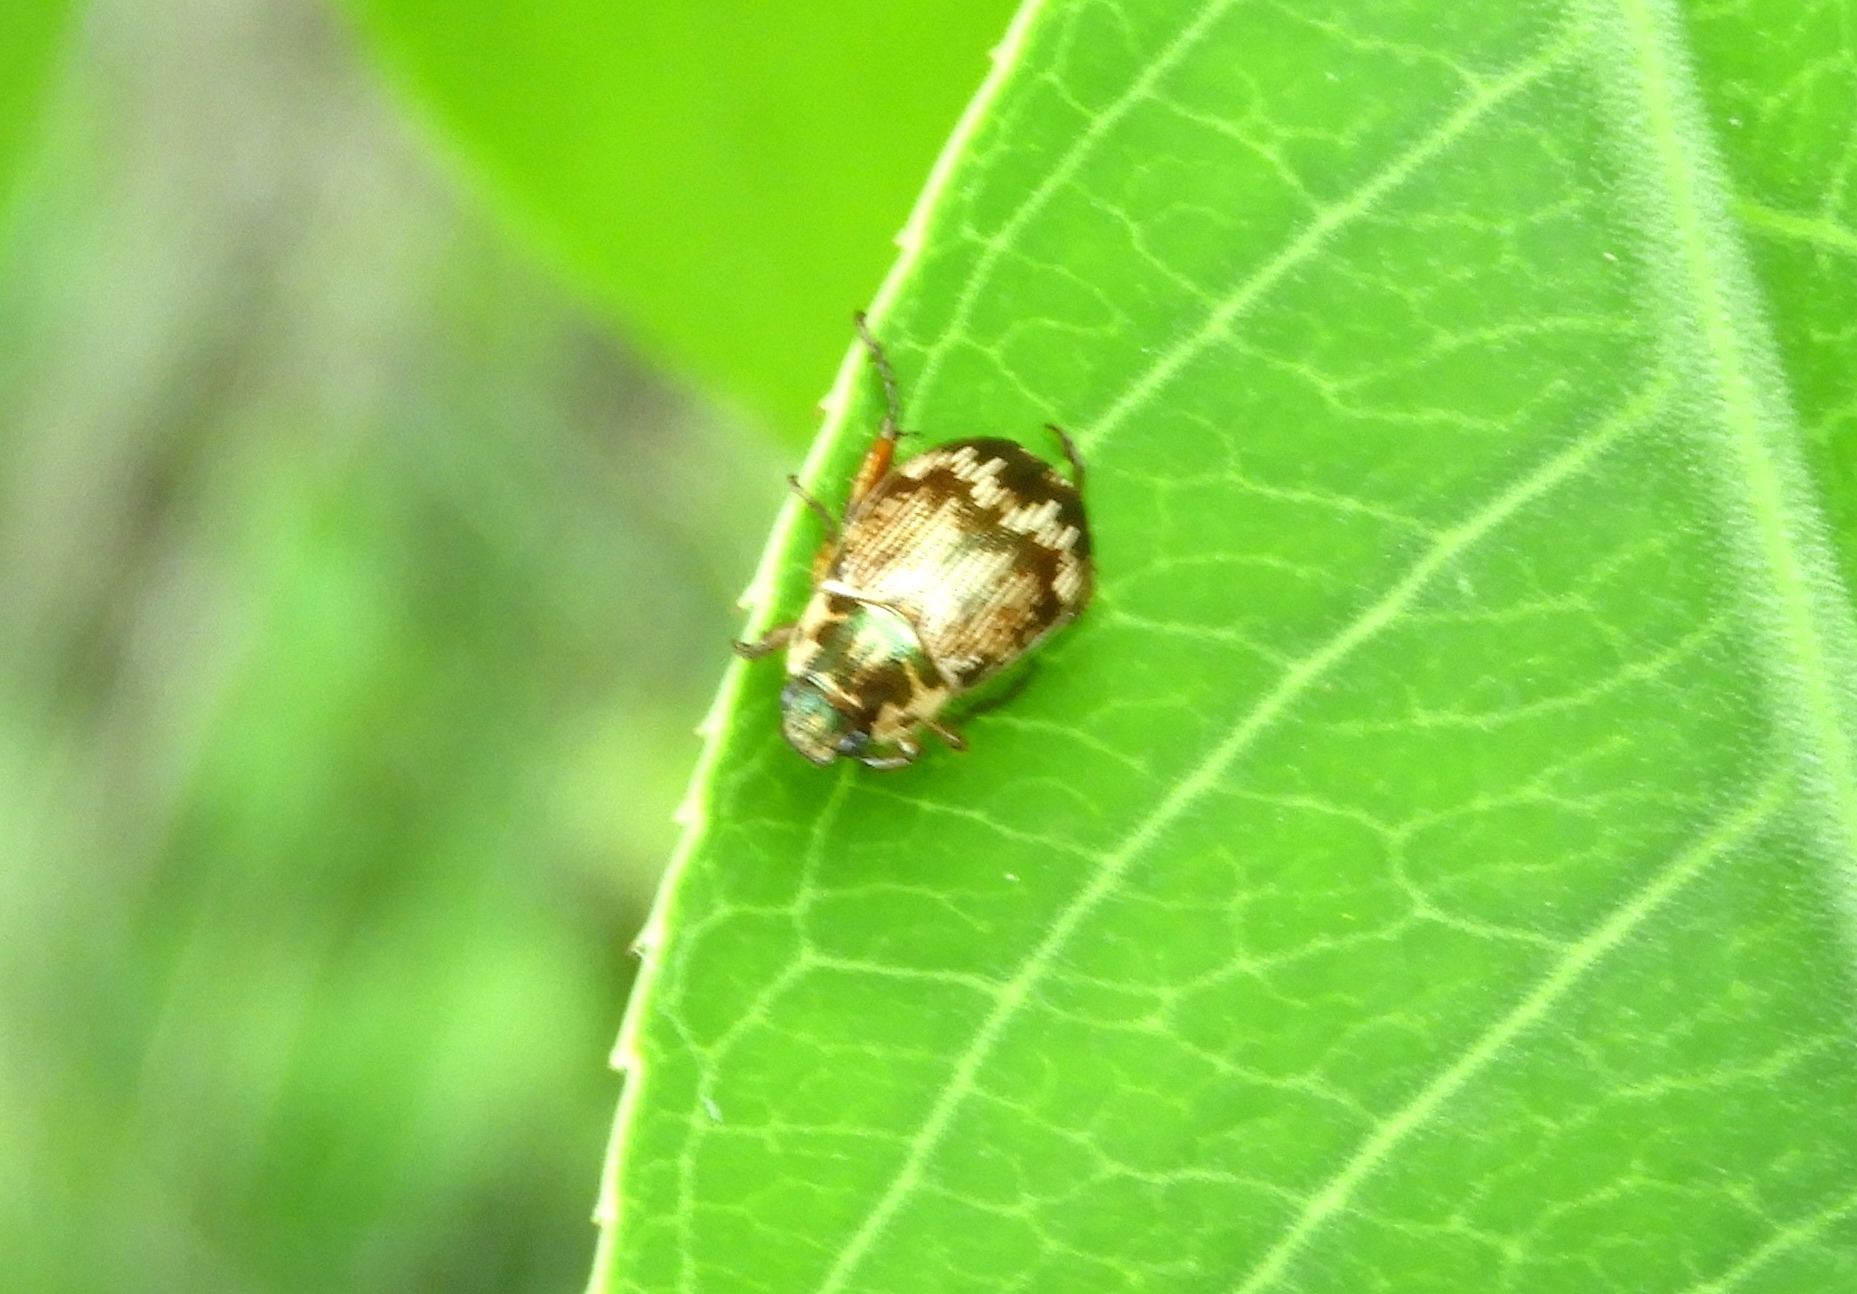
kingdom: Animalia
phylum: Arthropoda
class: Insecta
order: Coleoptera
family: Scarabaeidae
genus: Paranomala
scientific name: Paranomala histrionella
